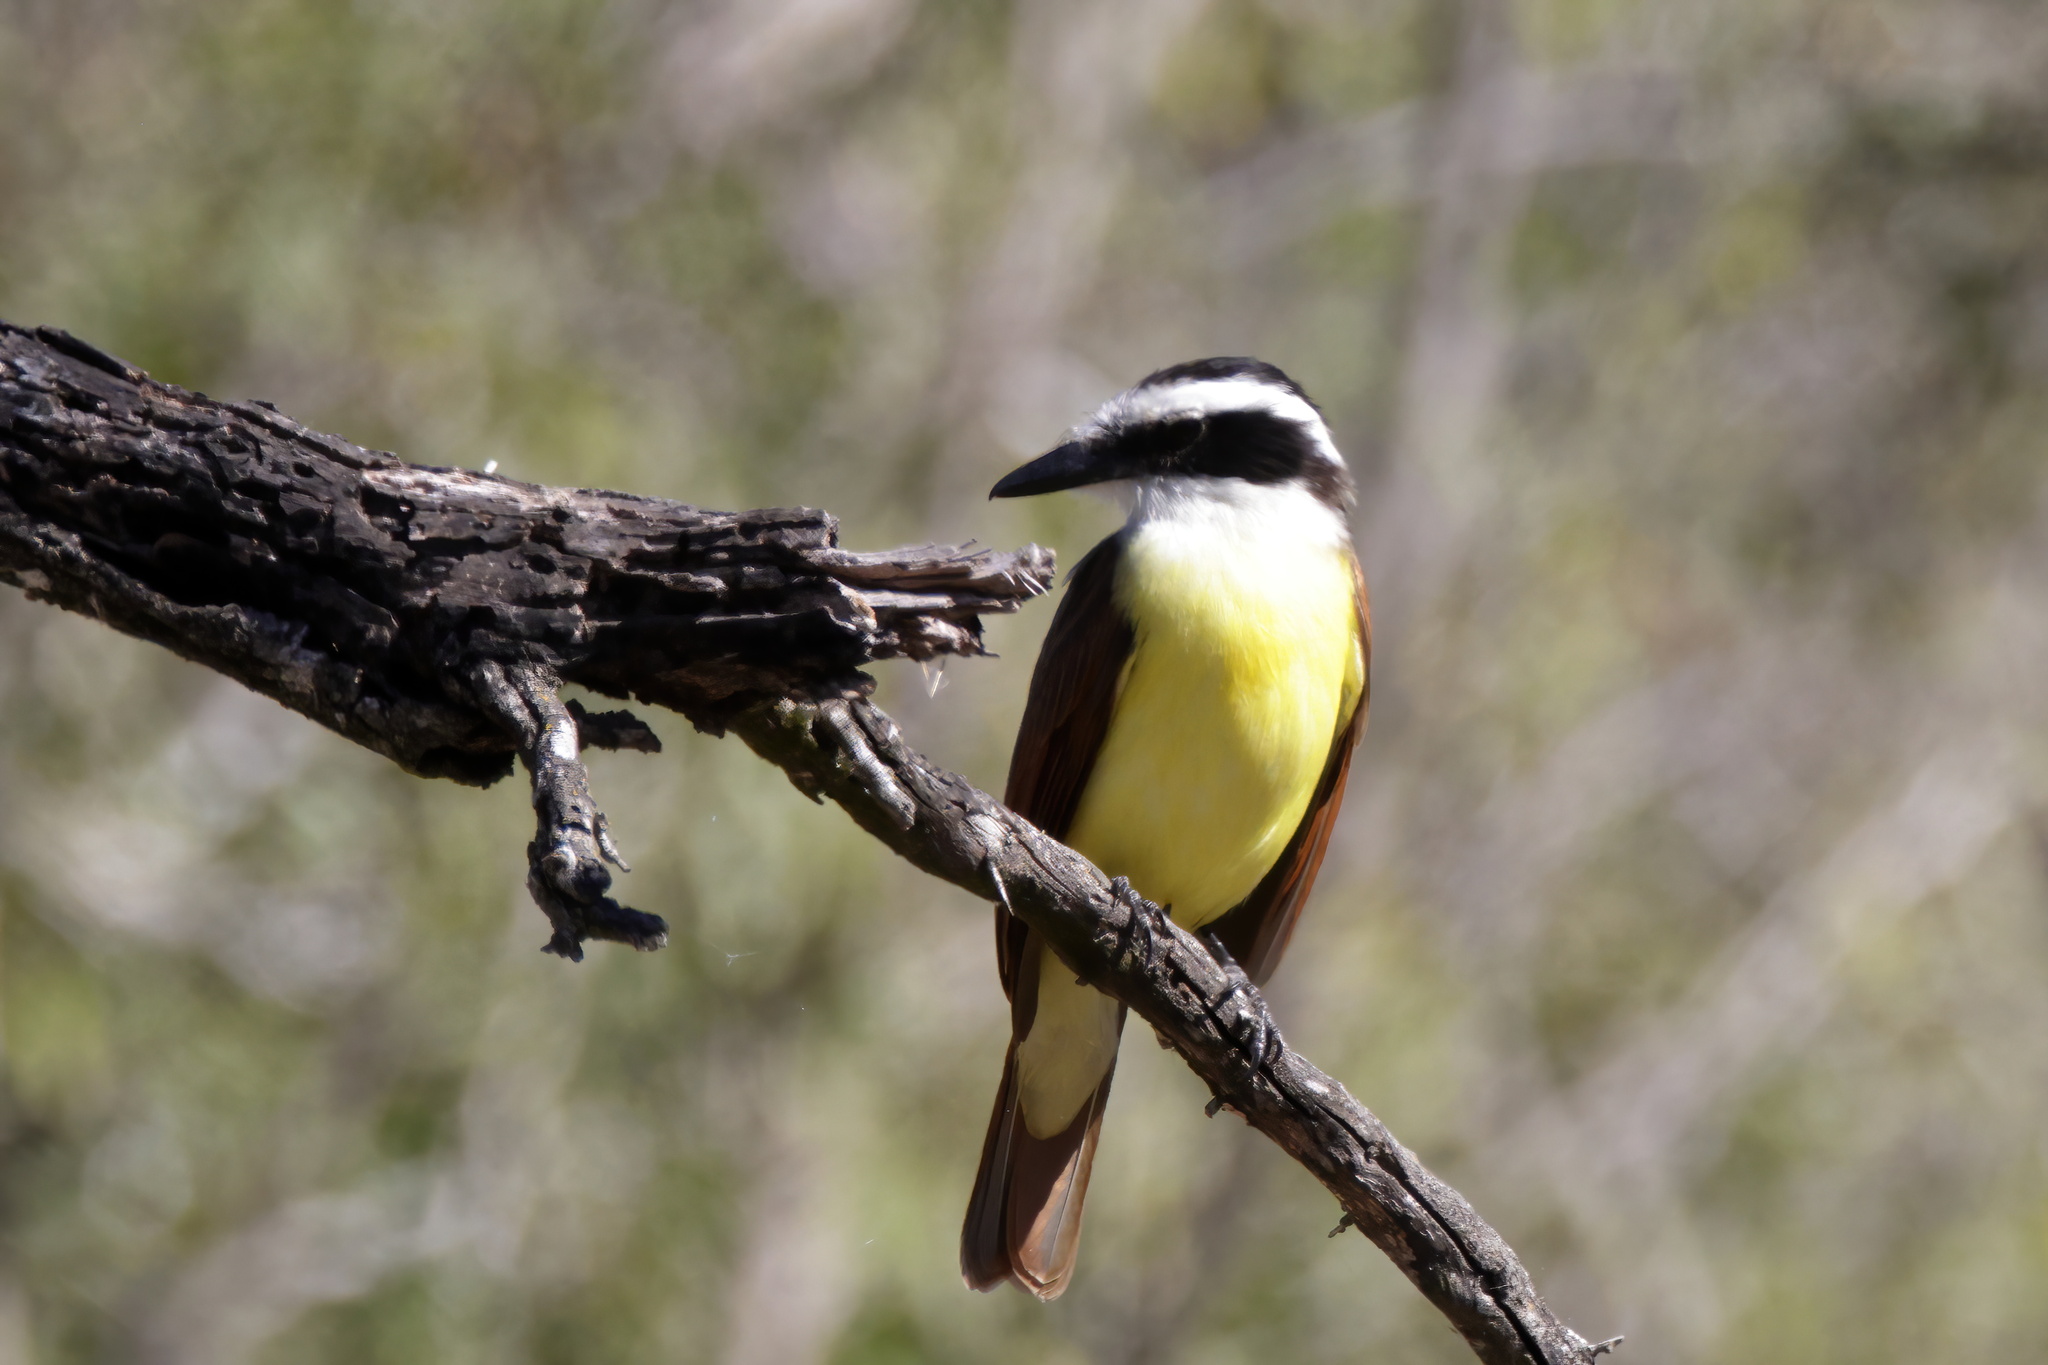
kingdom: Animalia
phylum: Chordata
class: Aves
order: Passeriformes
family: Tyrannidae
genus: Pitangus
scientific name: Pitangus sulphuratus
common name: Great kiskadee
